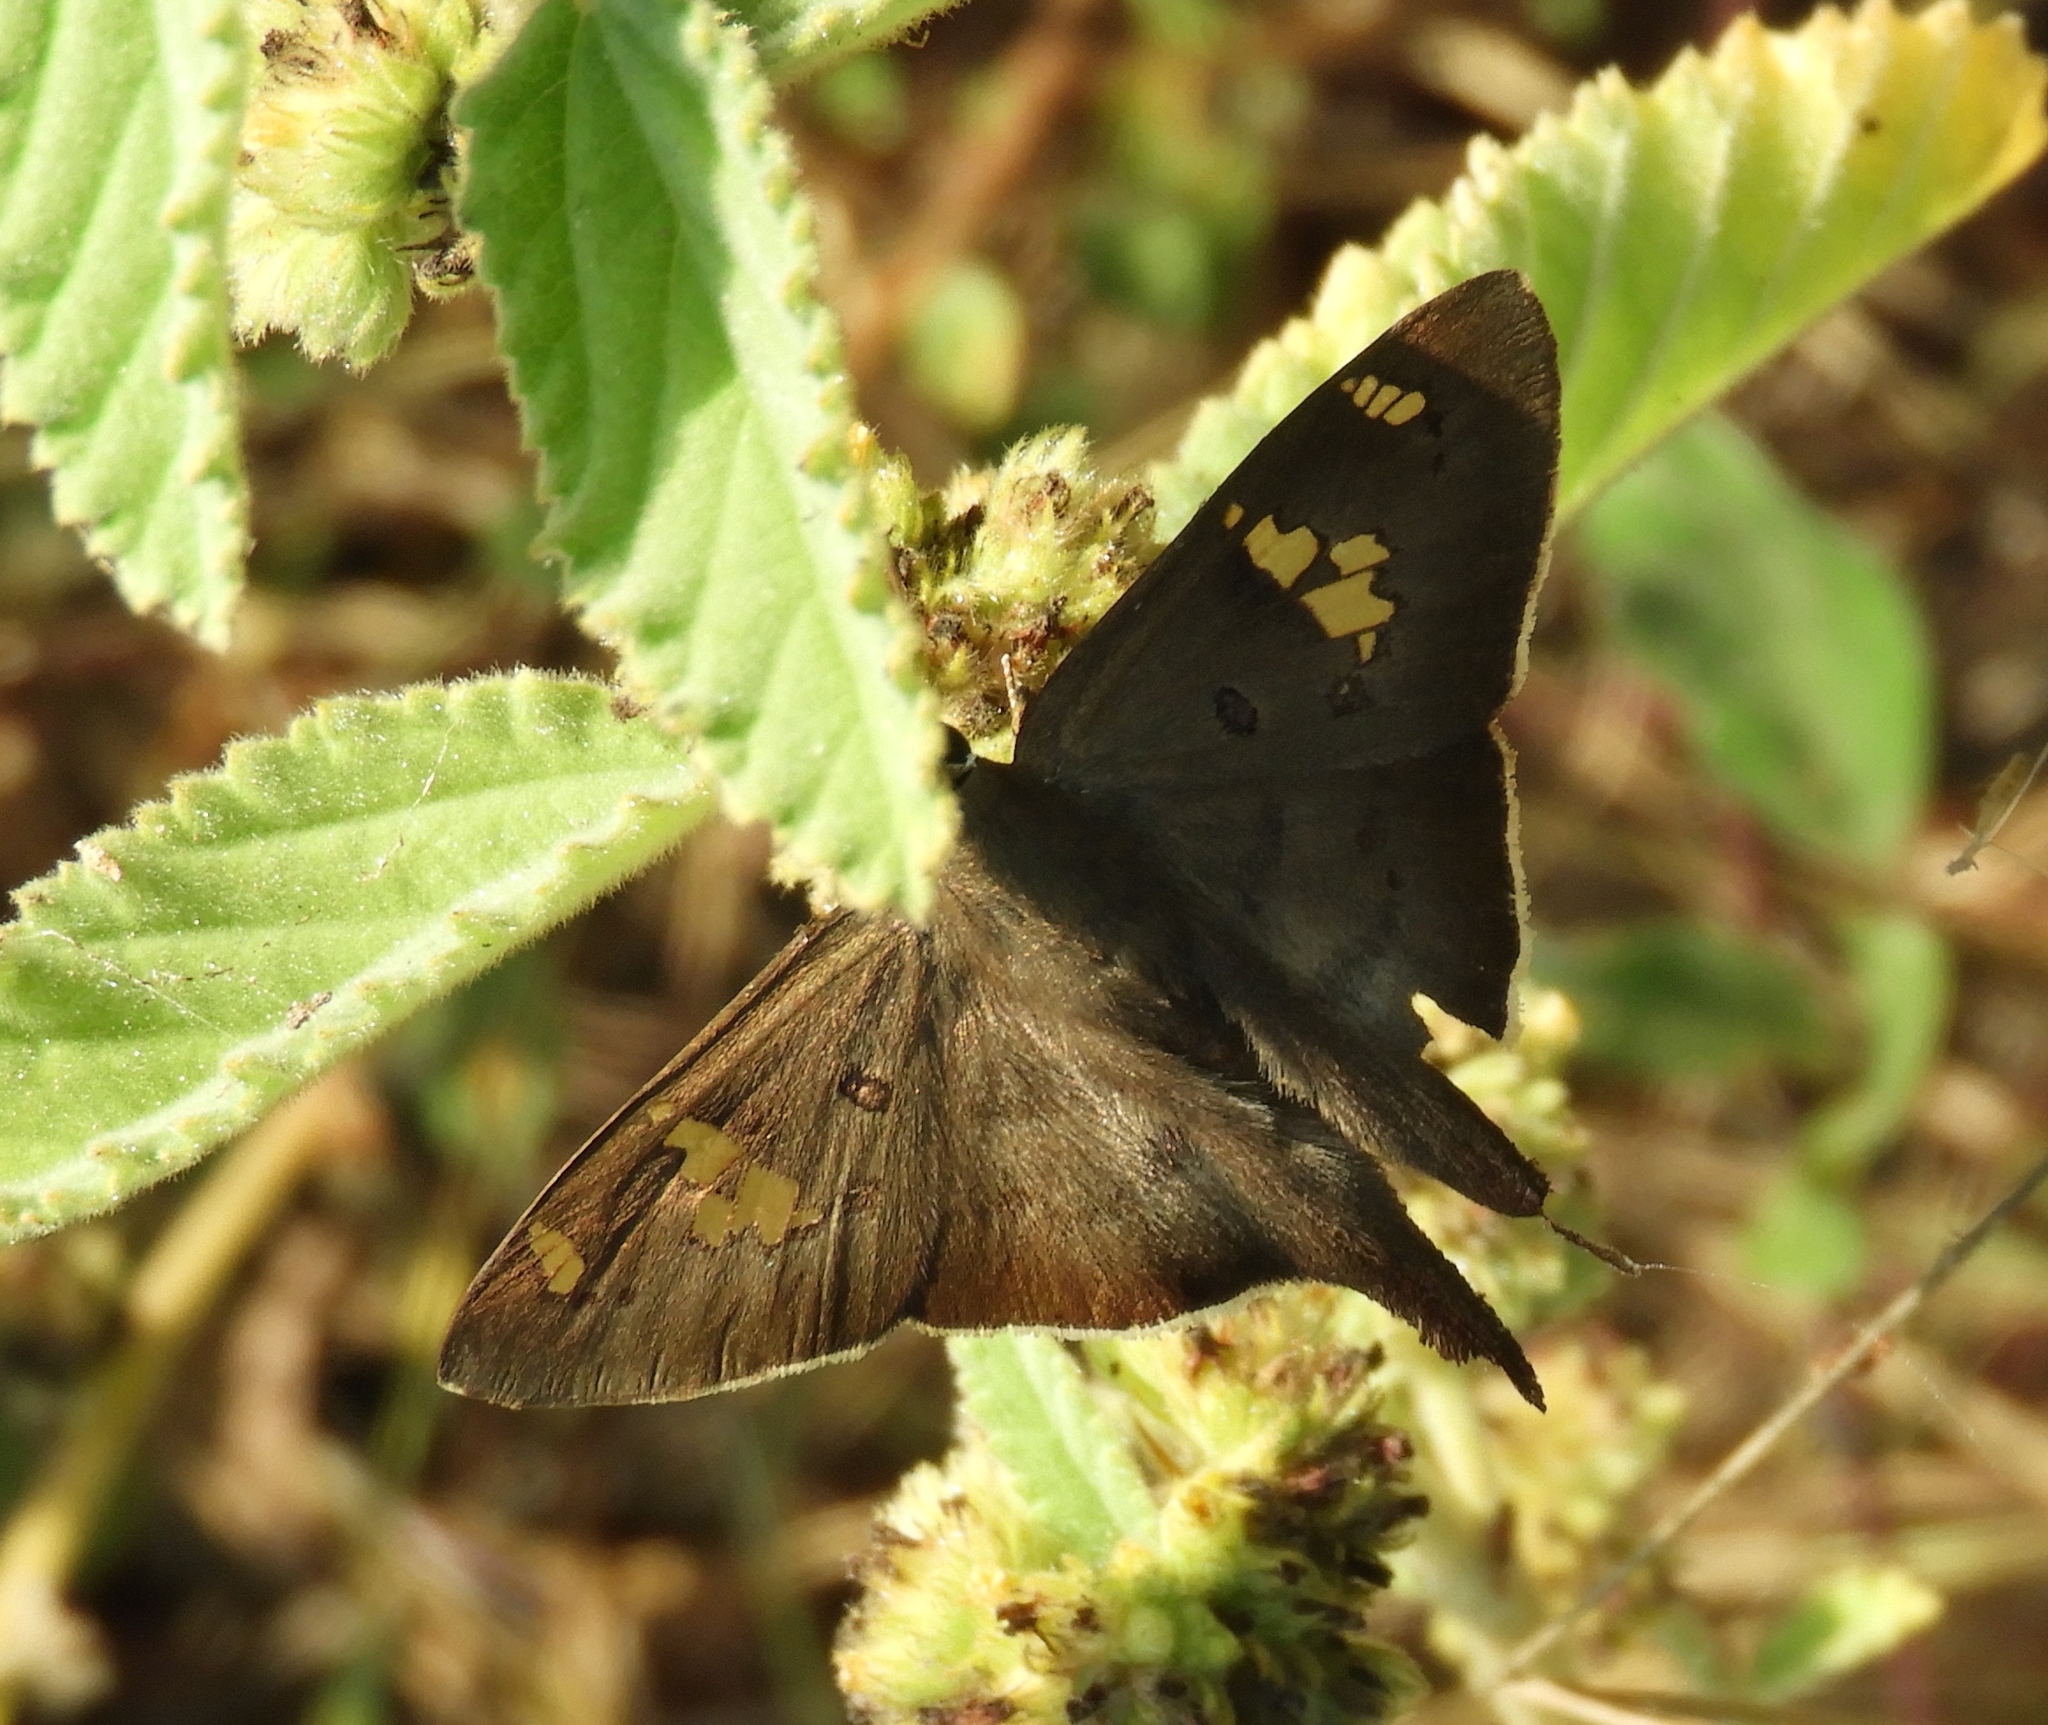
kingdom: Animalia
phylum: Arthropoda
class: Insecta
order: Lepidoptera
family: Hesperiidae
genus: Ectomis
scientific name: Ectomis
